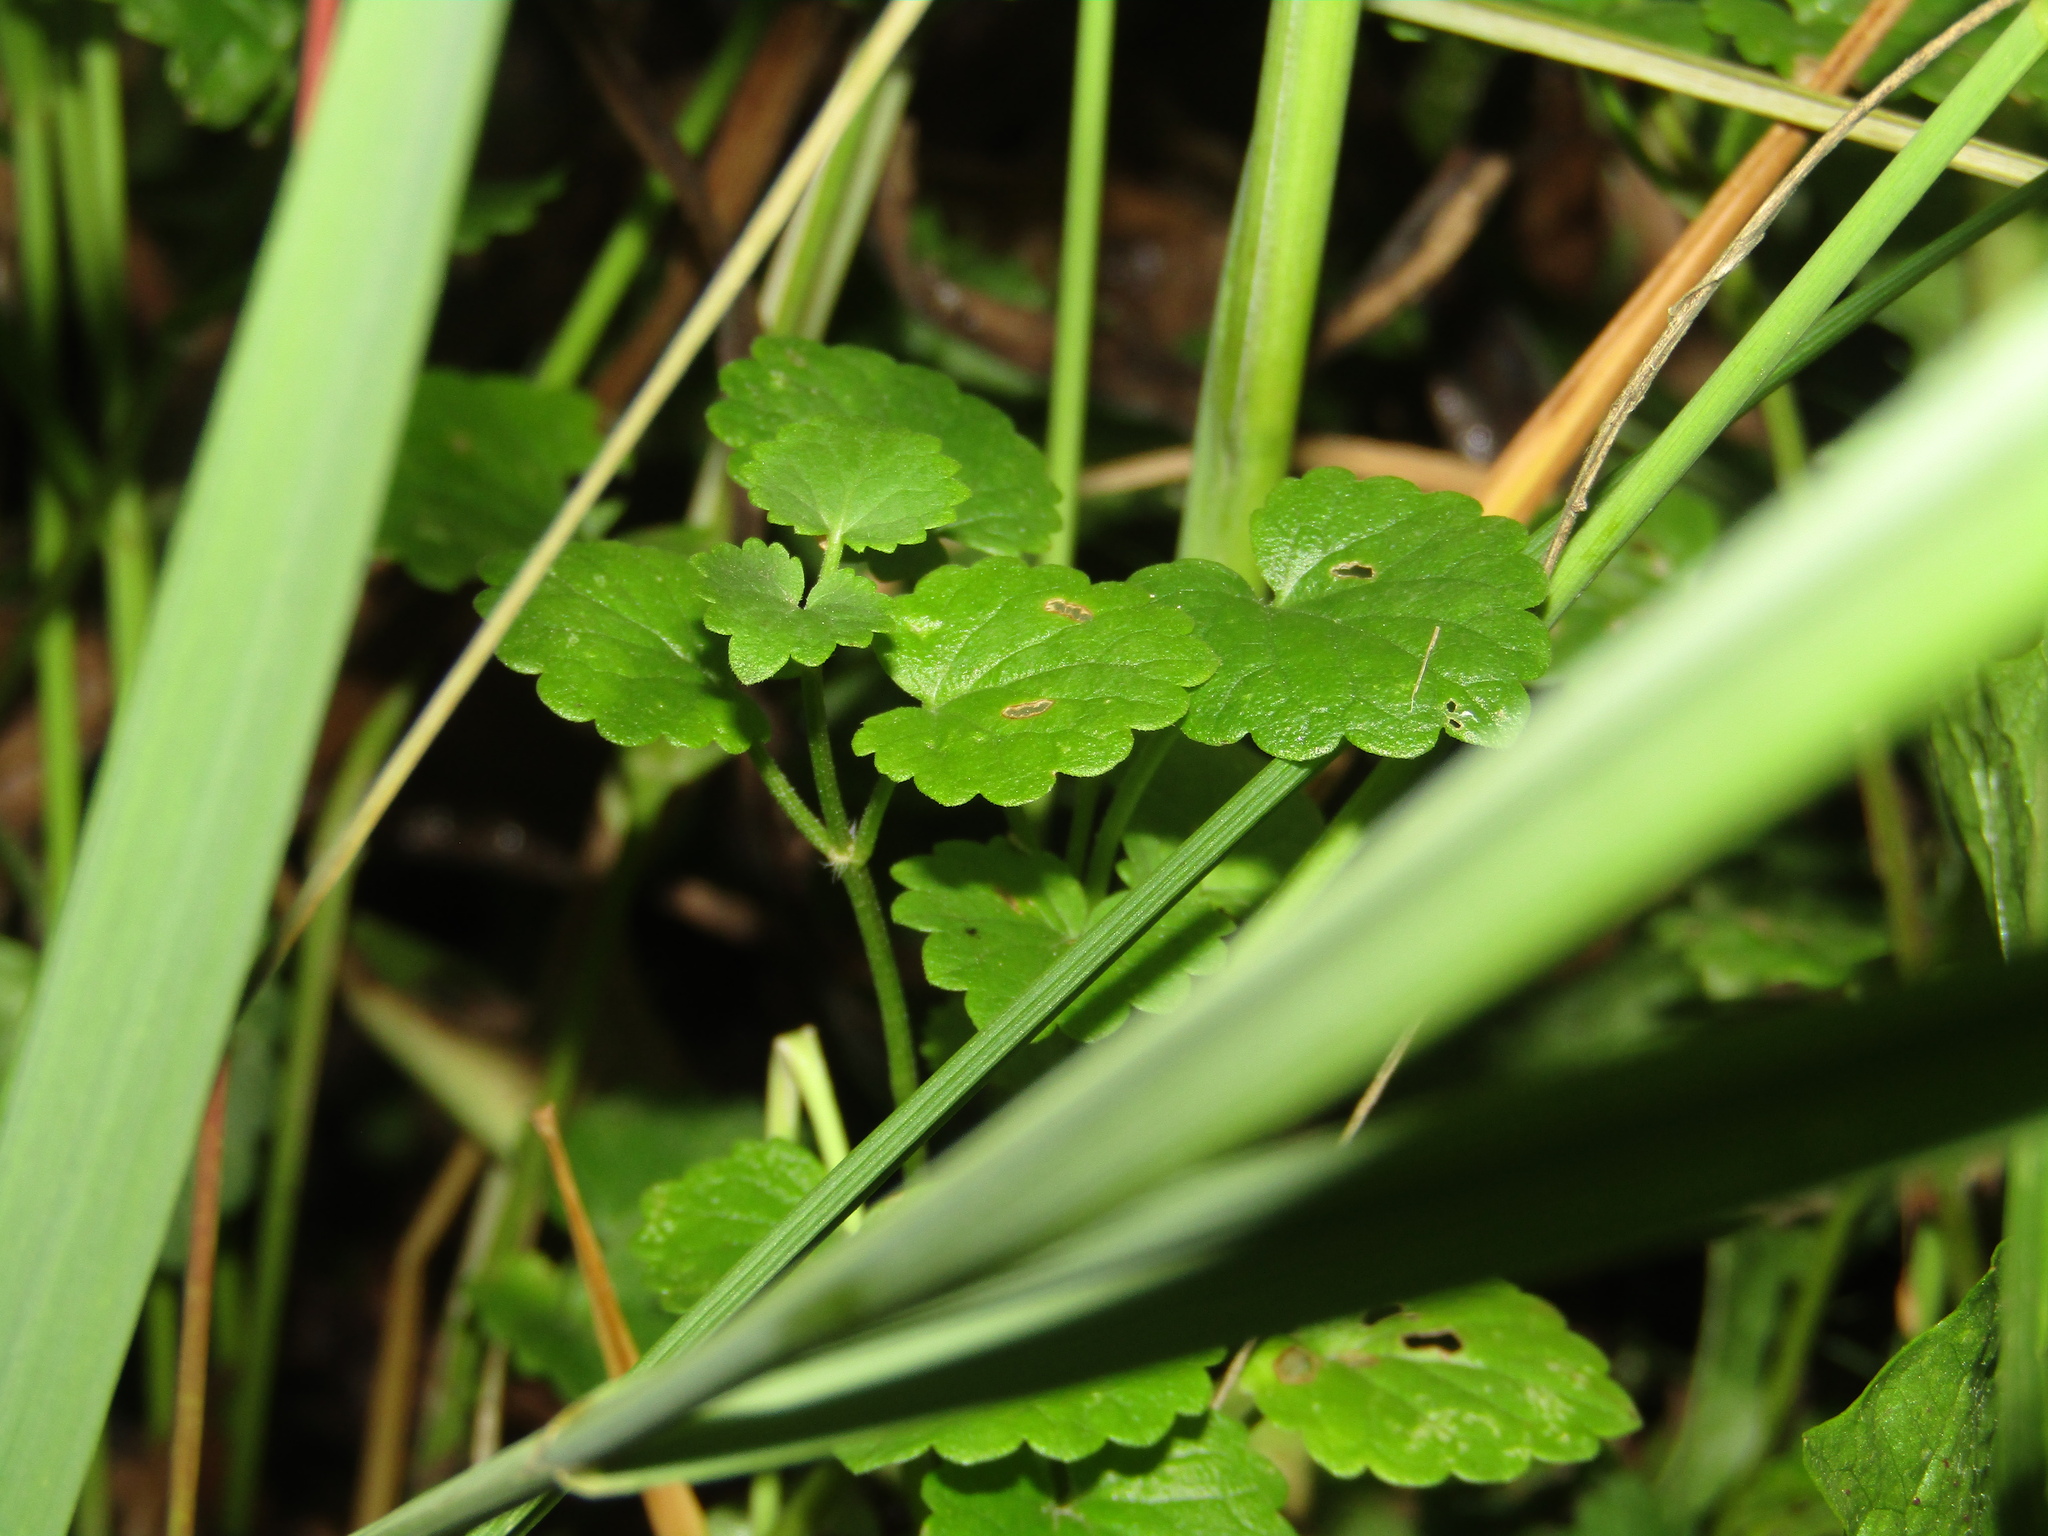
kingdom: Plantae
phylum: Tracheophyta
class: Magnoliopsida
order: Lamiales
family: Lamiaceae
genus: Glechoma
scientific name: Glechoma hederacea
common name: Ground ivy
